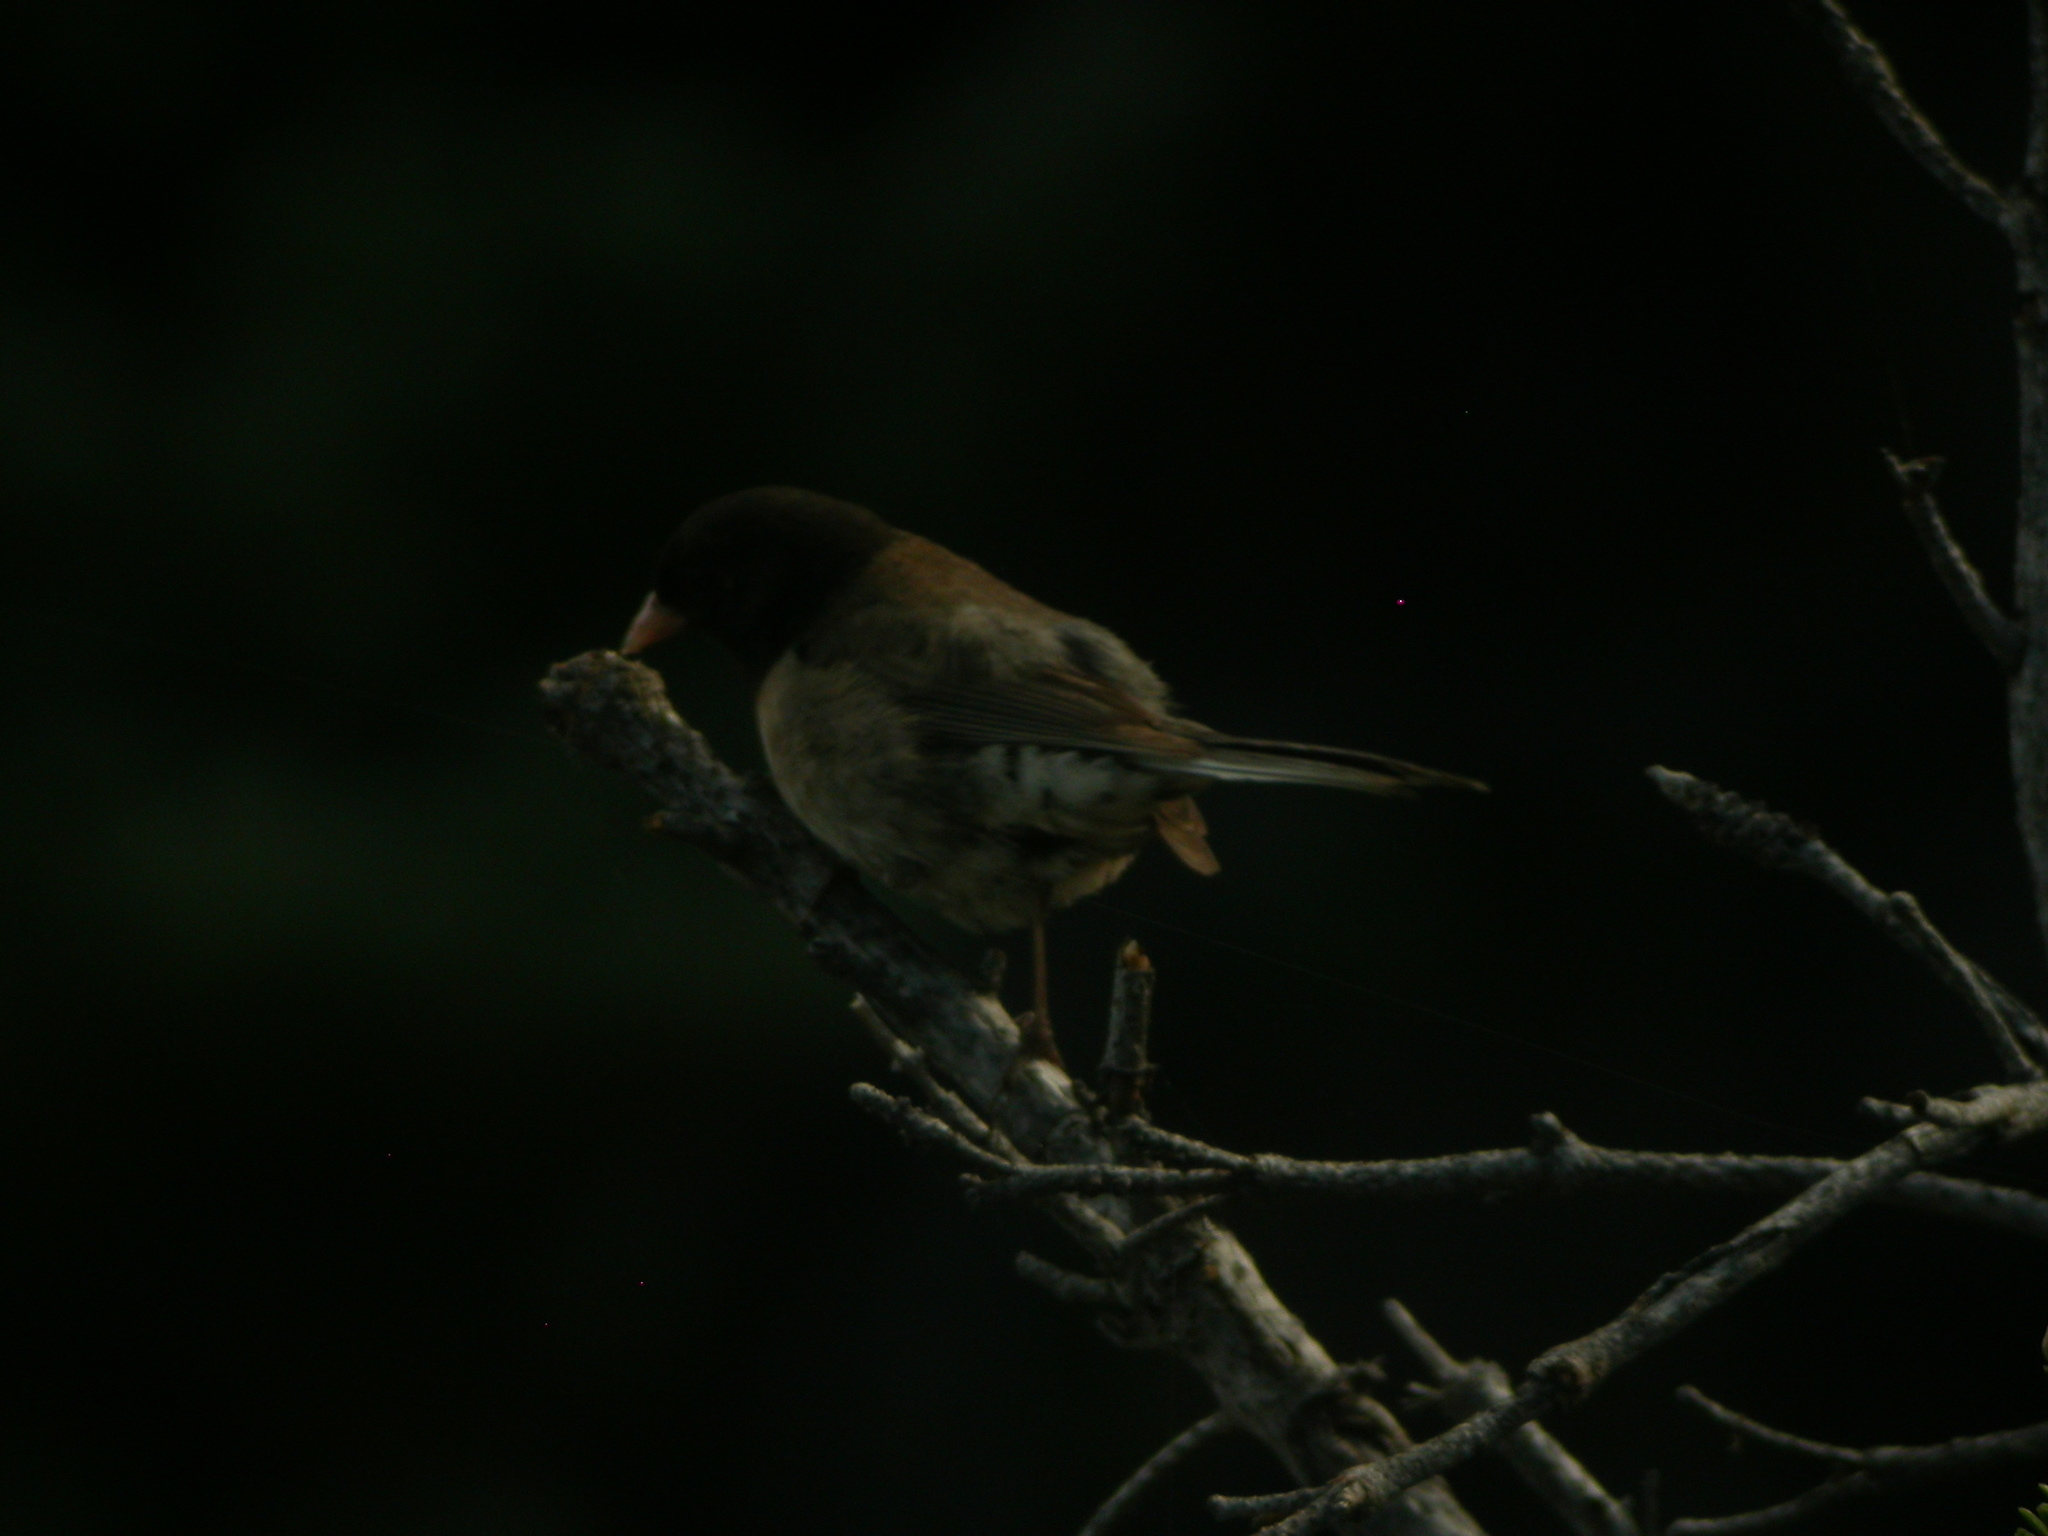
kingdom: Animalia
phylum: Chordata
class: Aves
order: Passeriformes
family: Passerellidae
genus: Junco
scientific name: Junco hyemalis
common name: Dark-eyed junco
